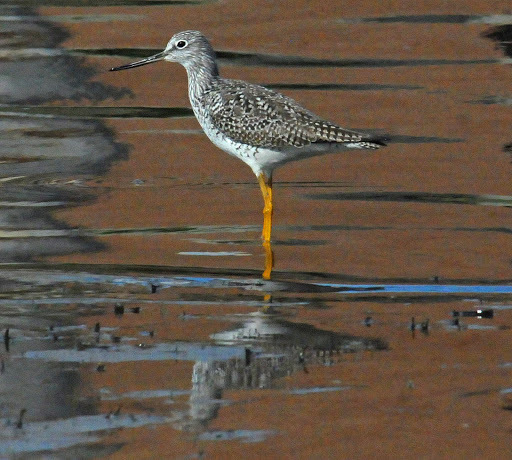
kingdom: Animalia
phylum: Chordata
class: Aves
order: Charadriiformes
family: Scolopacidae
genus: Tringa
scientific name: Tringa melanoleuca
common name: Greater yellowlegs
